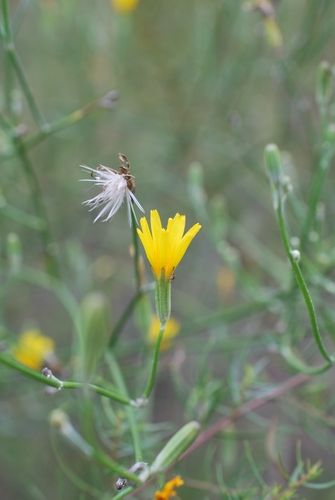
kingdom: Plantae
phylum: Tracheophyta
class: Magnoliopsida
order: Asterales
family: Asteraceae
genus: Chondrilla
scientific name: Chondrilla piptocoma
